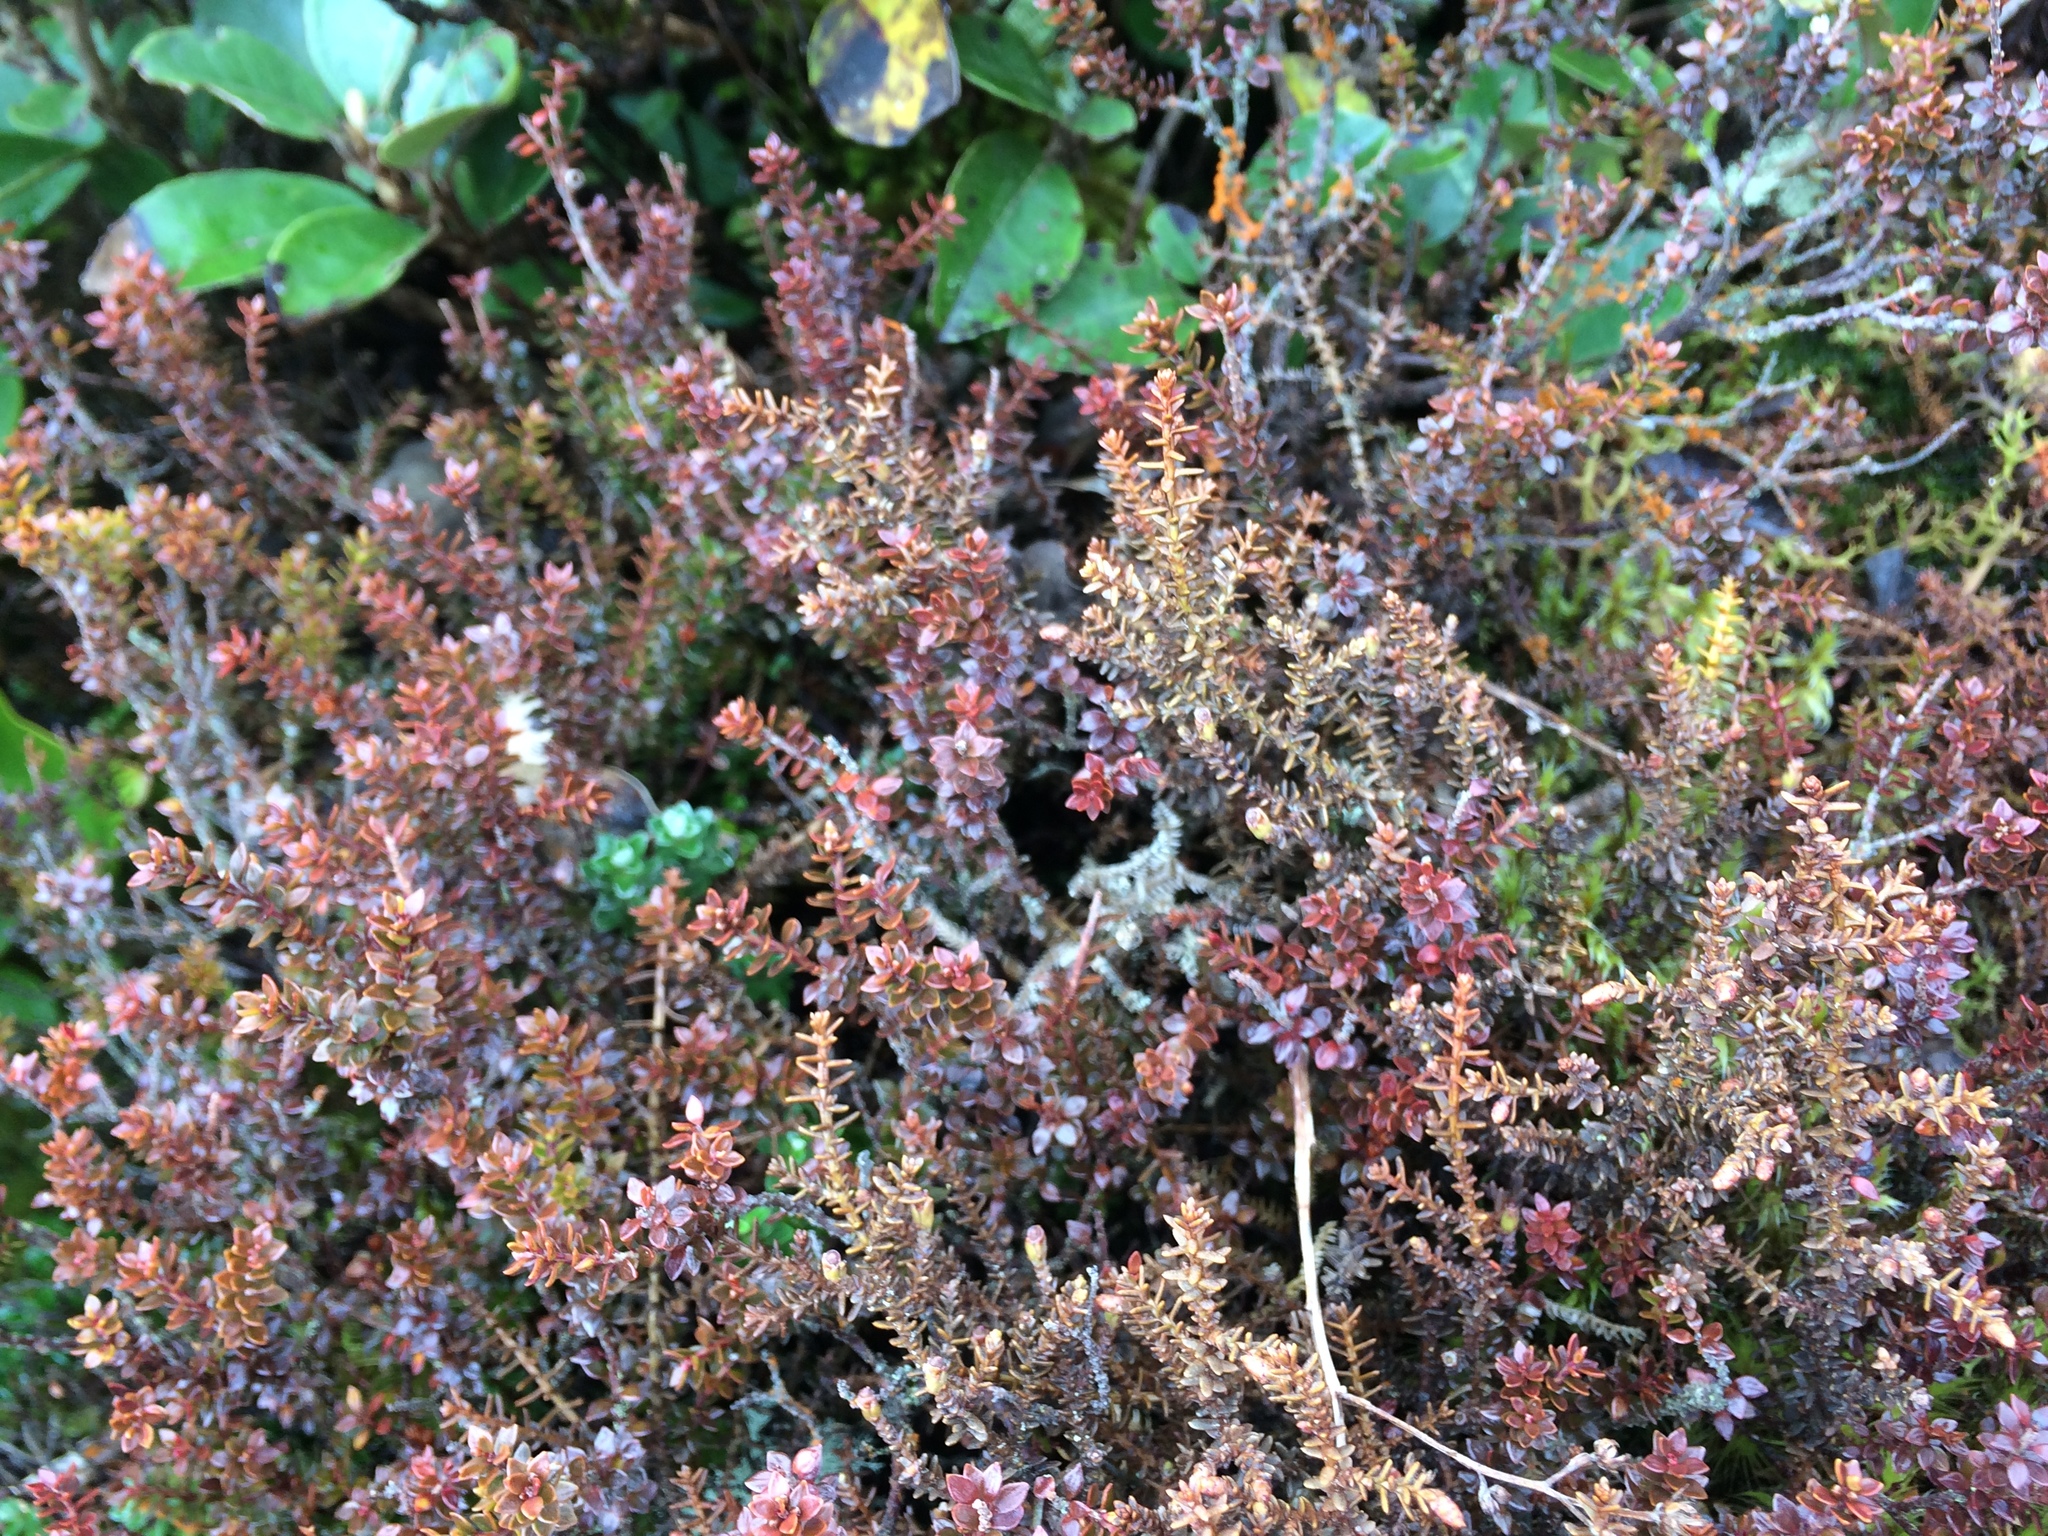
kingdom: Plantae
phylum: Tracheophyta
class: Magnoliopsida
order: Ericales
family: Ericaceae
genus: Epacris
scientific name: Epacris alpina
